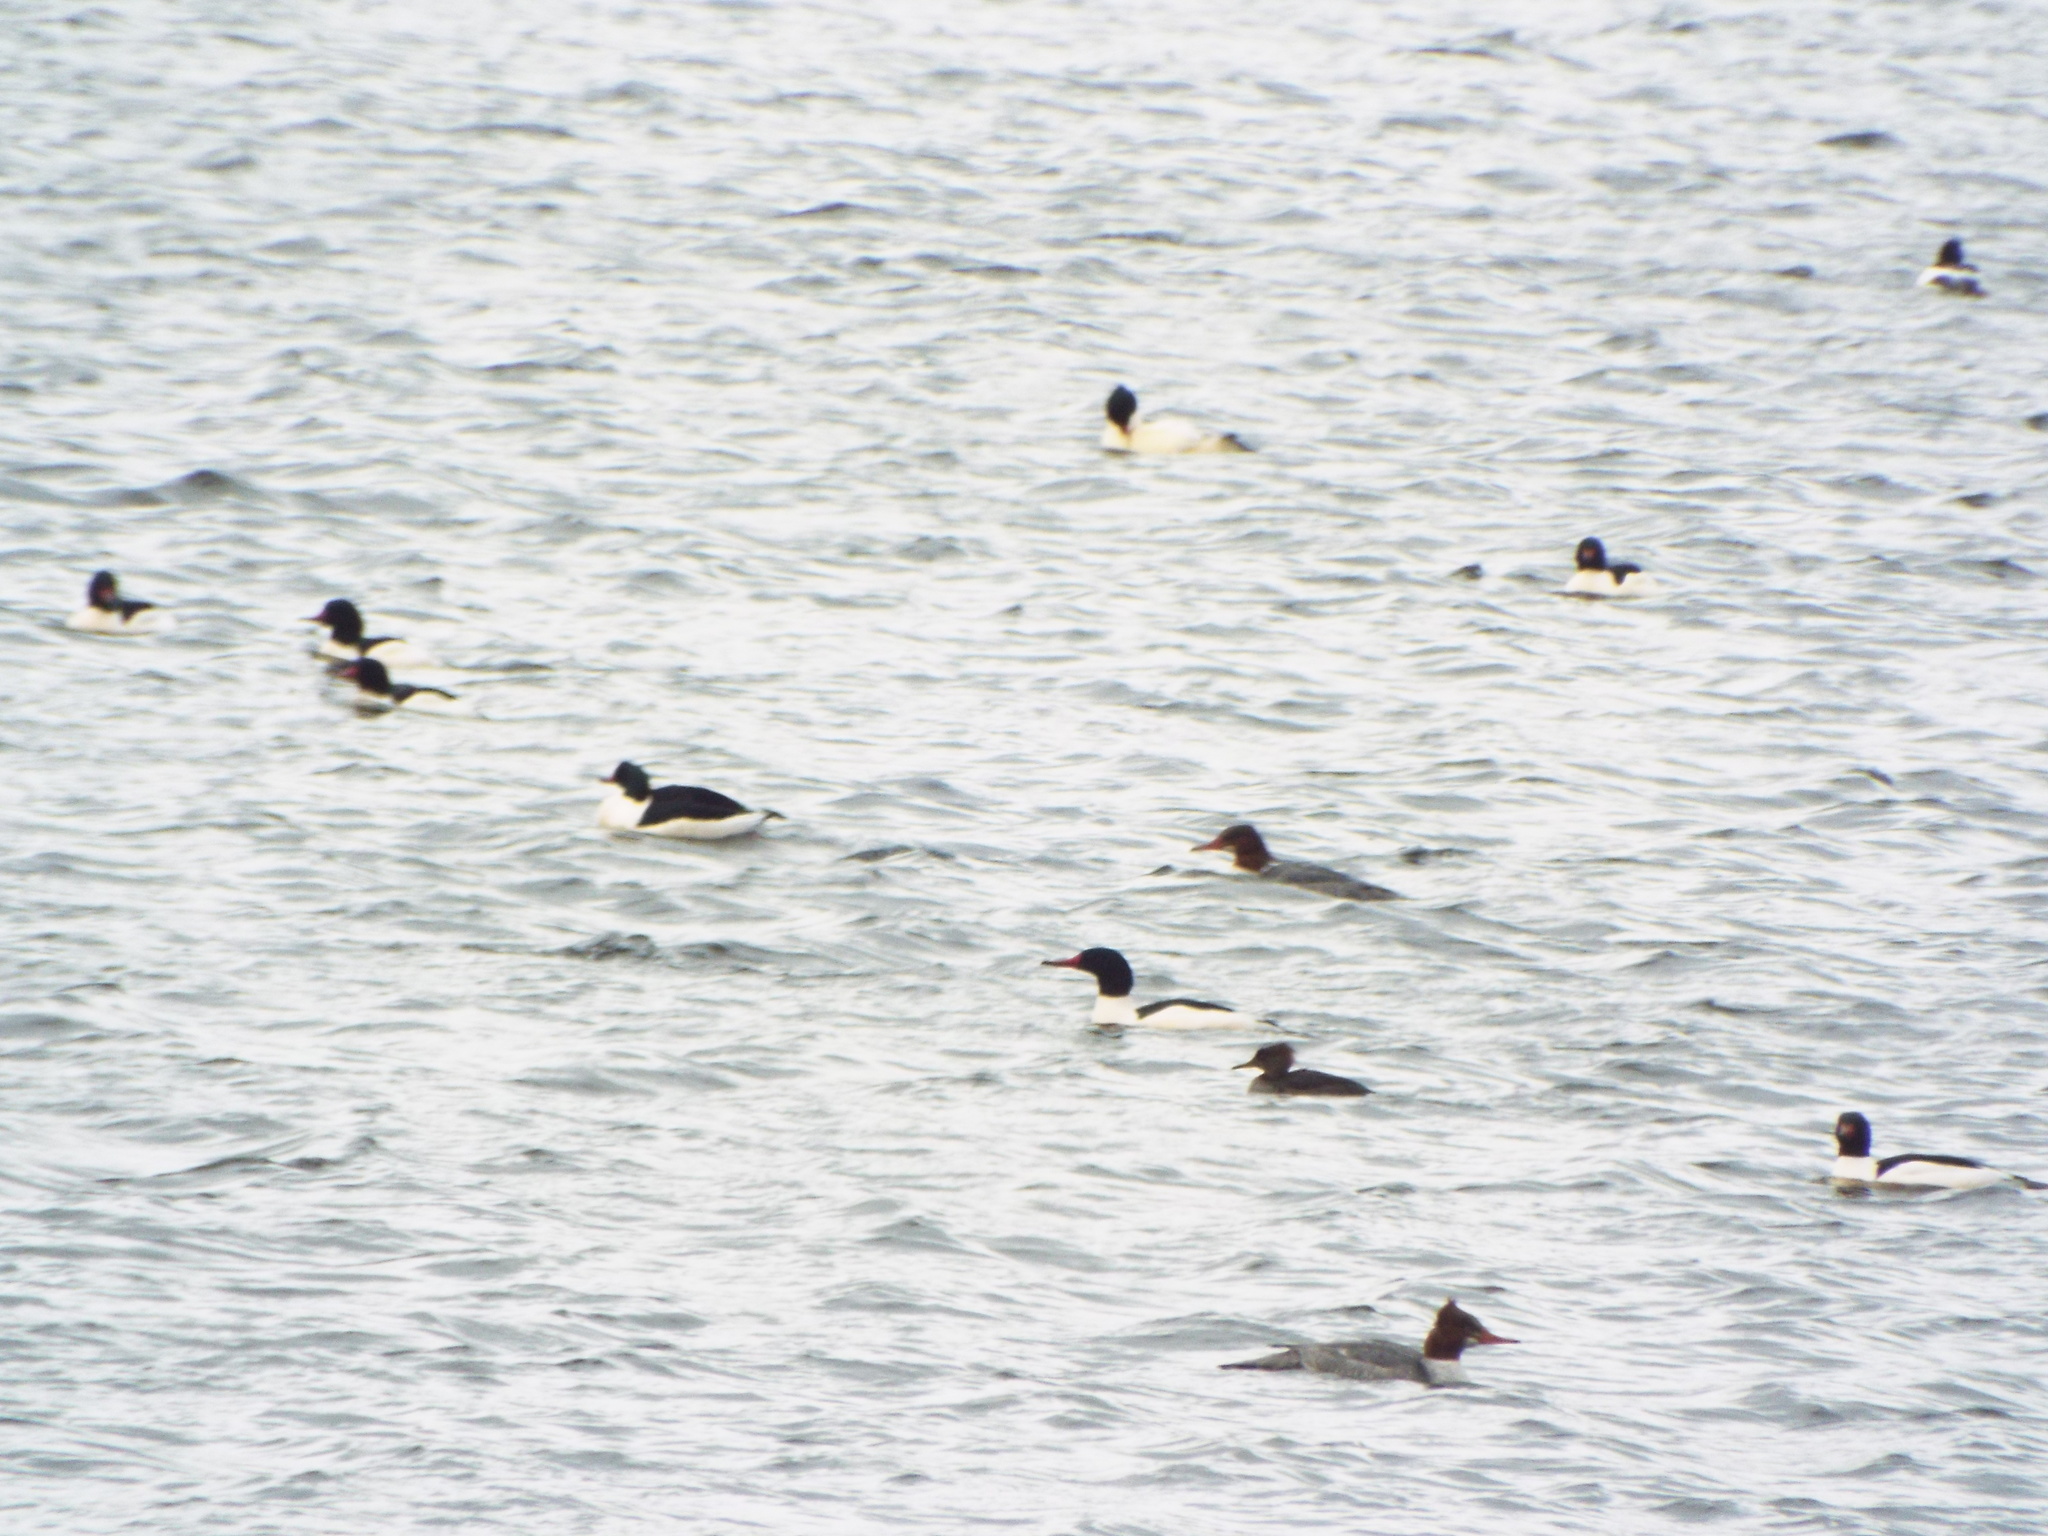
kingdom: Animalia
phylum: Chordata
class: Aves
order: Anseriformes
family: Anatidae
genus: Mergus
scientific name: Mergus merganser
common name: Common merganser
